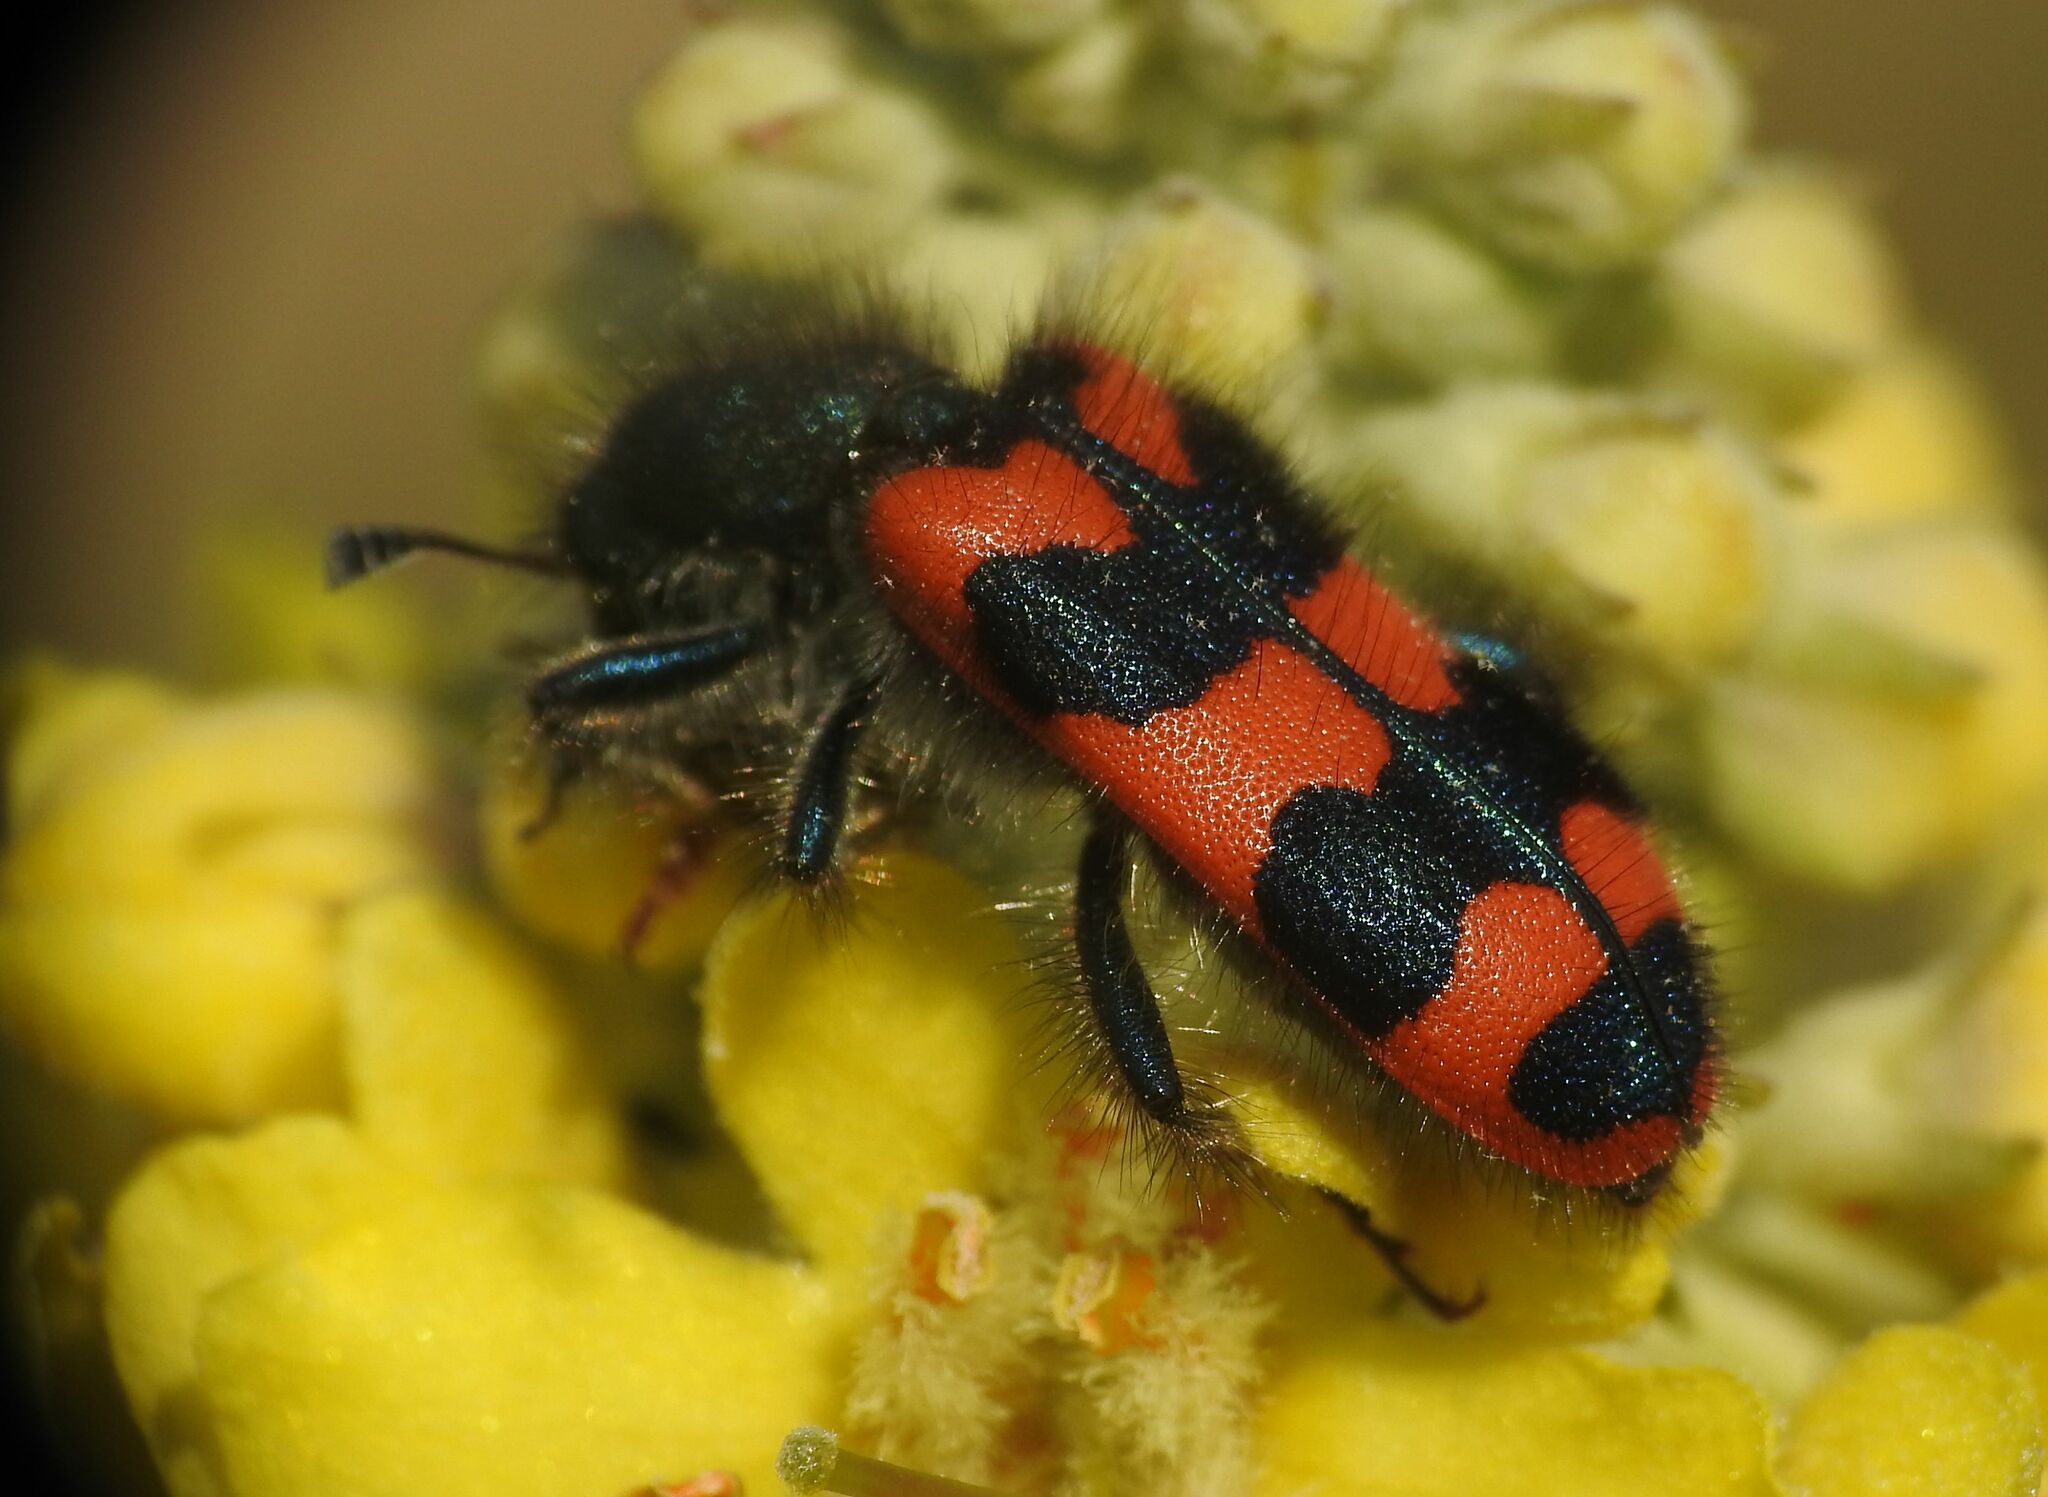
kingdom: Animalia
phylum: Arthropoda
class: Insecta
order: Coleoptera
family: Cleridae
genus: Trichodes
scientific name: Trichodes alvearius
